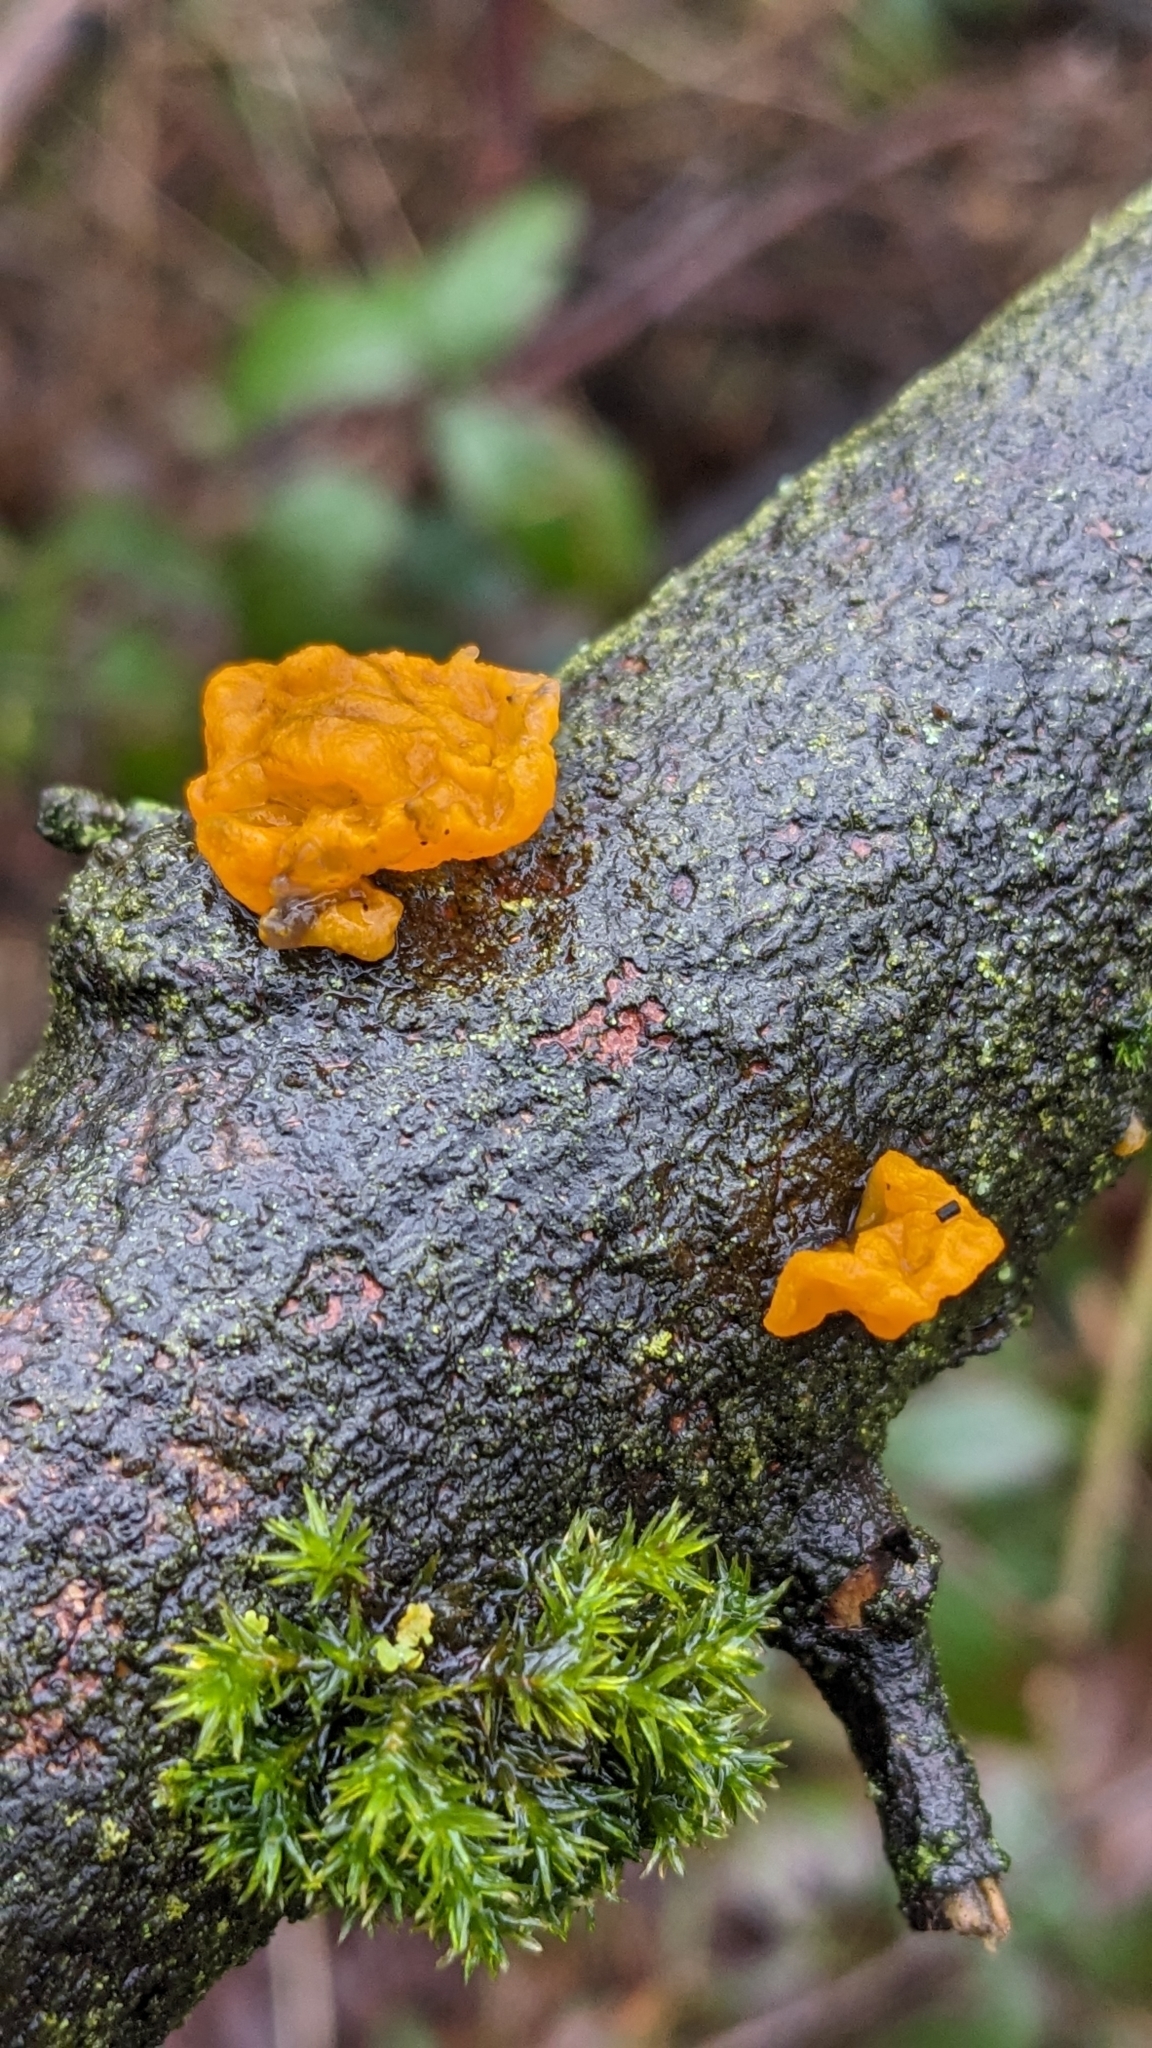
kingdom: Fungi
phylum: Basidiomycota
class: Tremellomycetes
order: Tremellales
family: Tremellaceae
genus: Tremella
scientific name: Tremella mesenterica
